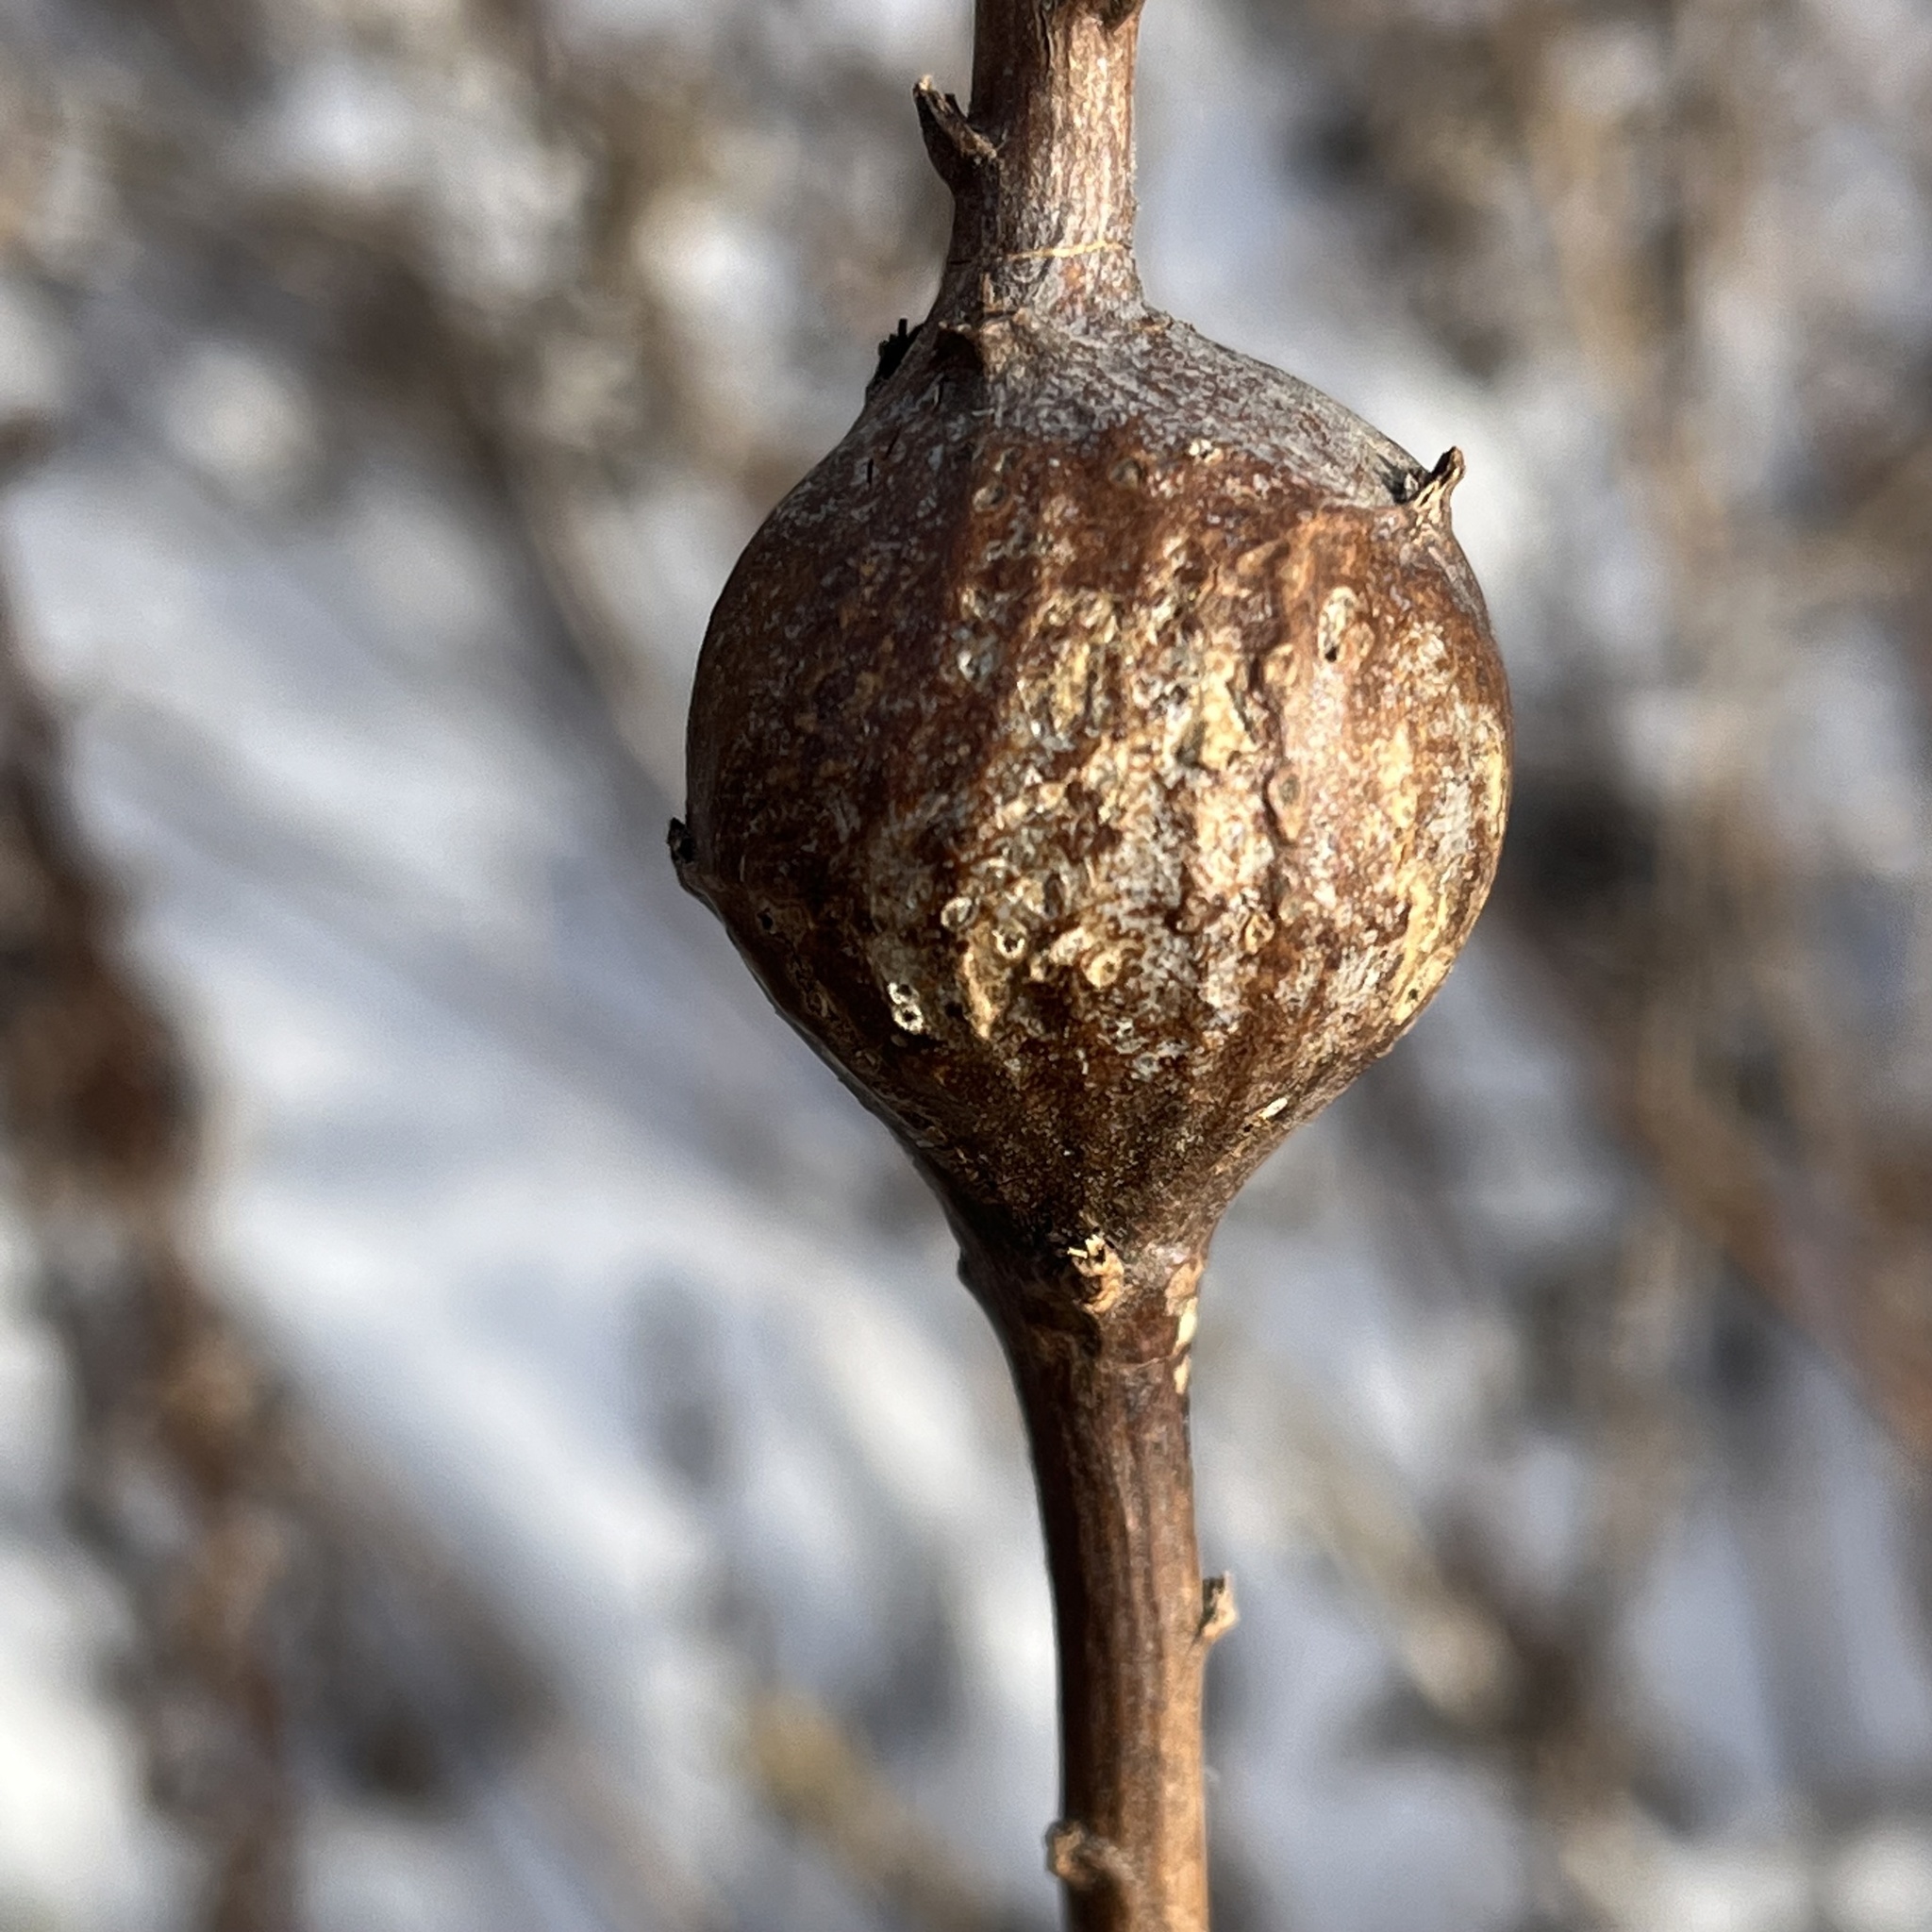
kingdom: Animalia
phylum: Arthropoda
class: Insecta
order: Diptera
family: Tephritidae
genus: Eurosta
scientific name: Eurosta solidaginis
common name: Goldenrod gall fly
